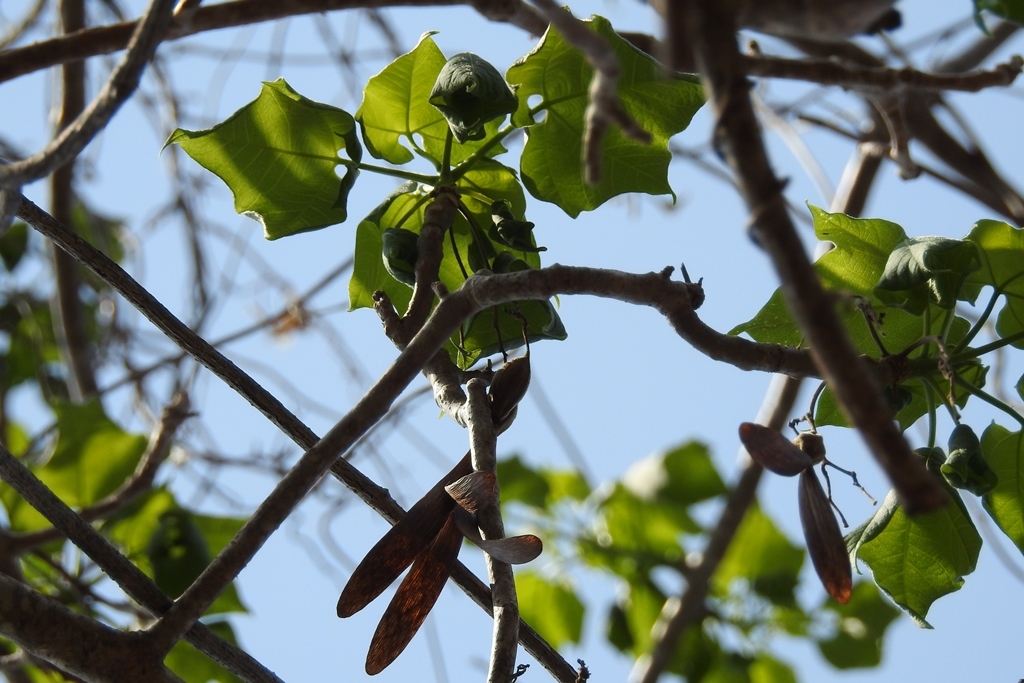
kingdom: Plantae
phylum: Tracheophyta
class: Magnoliopsida
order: Laurales
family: Hernandiaceae
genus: Gyrocarpus
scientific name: Gyrocarpus mocinoi
